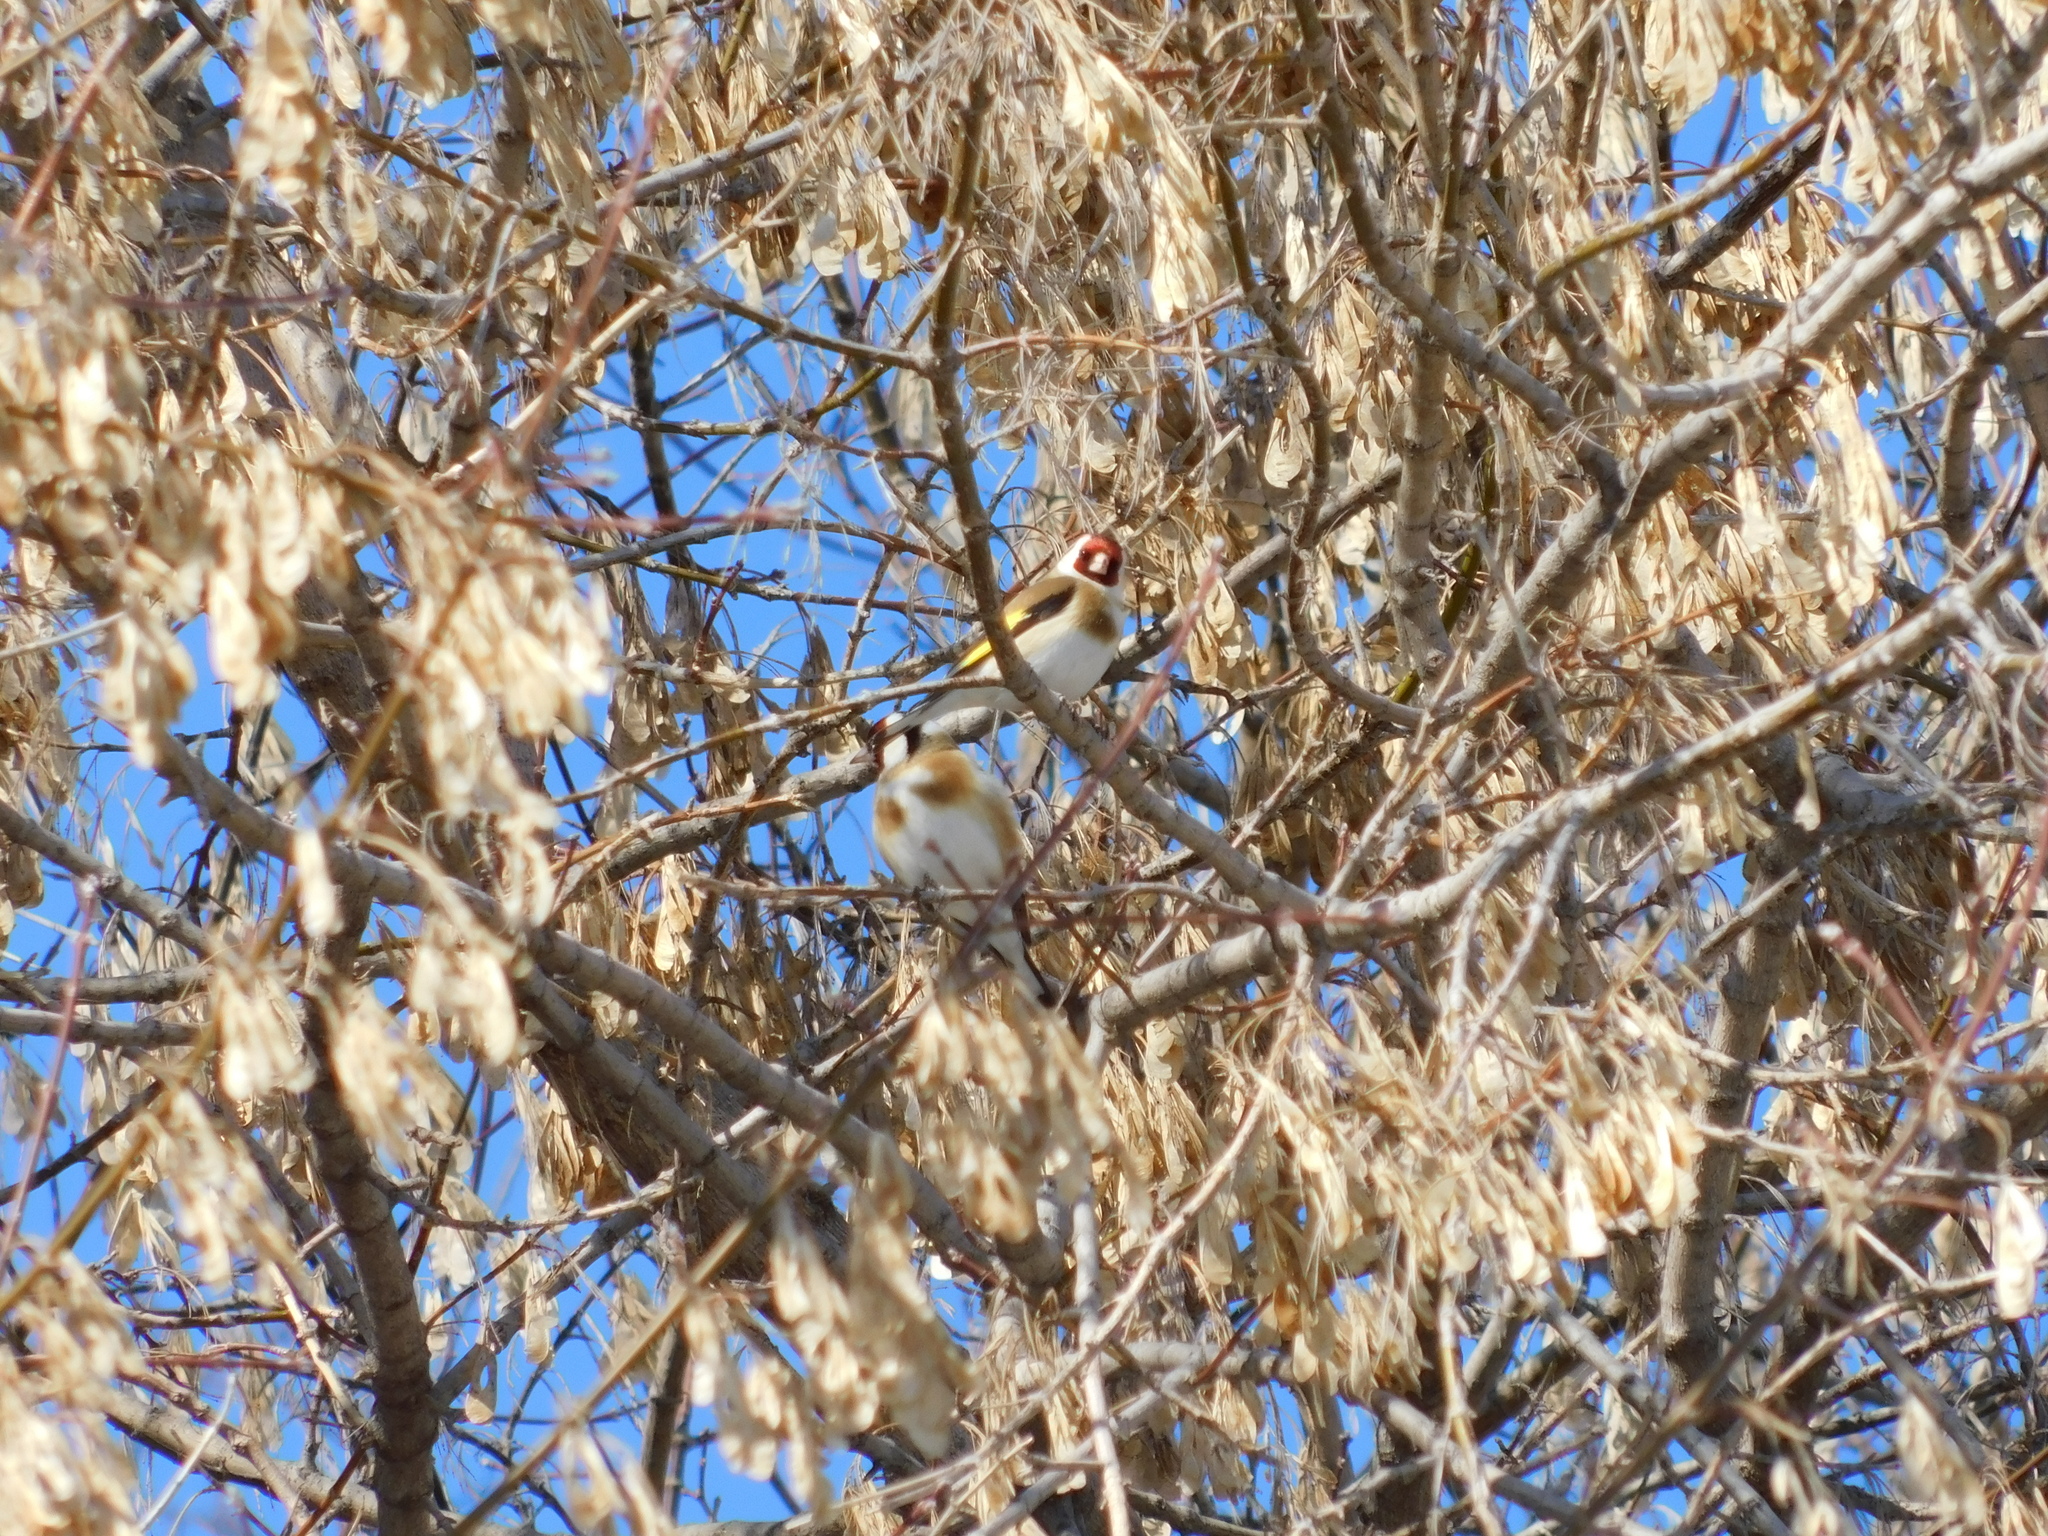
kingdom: Animalia
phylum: Chordata
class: Aves
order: Passeriformes
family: Fringillidae
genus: Carduelis
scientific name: Carduelis carduelis
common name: European goldfinch
